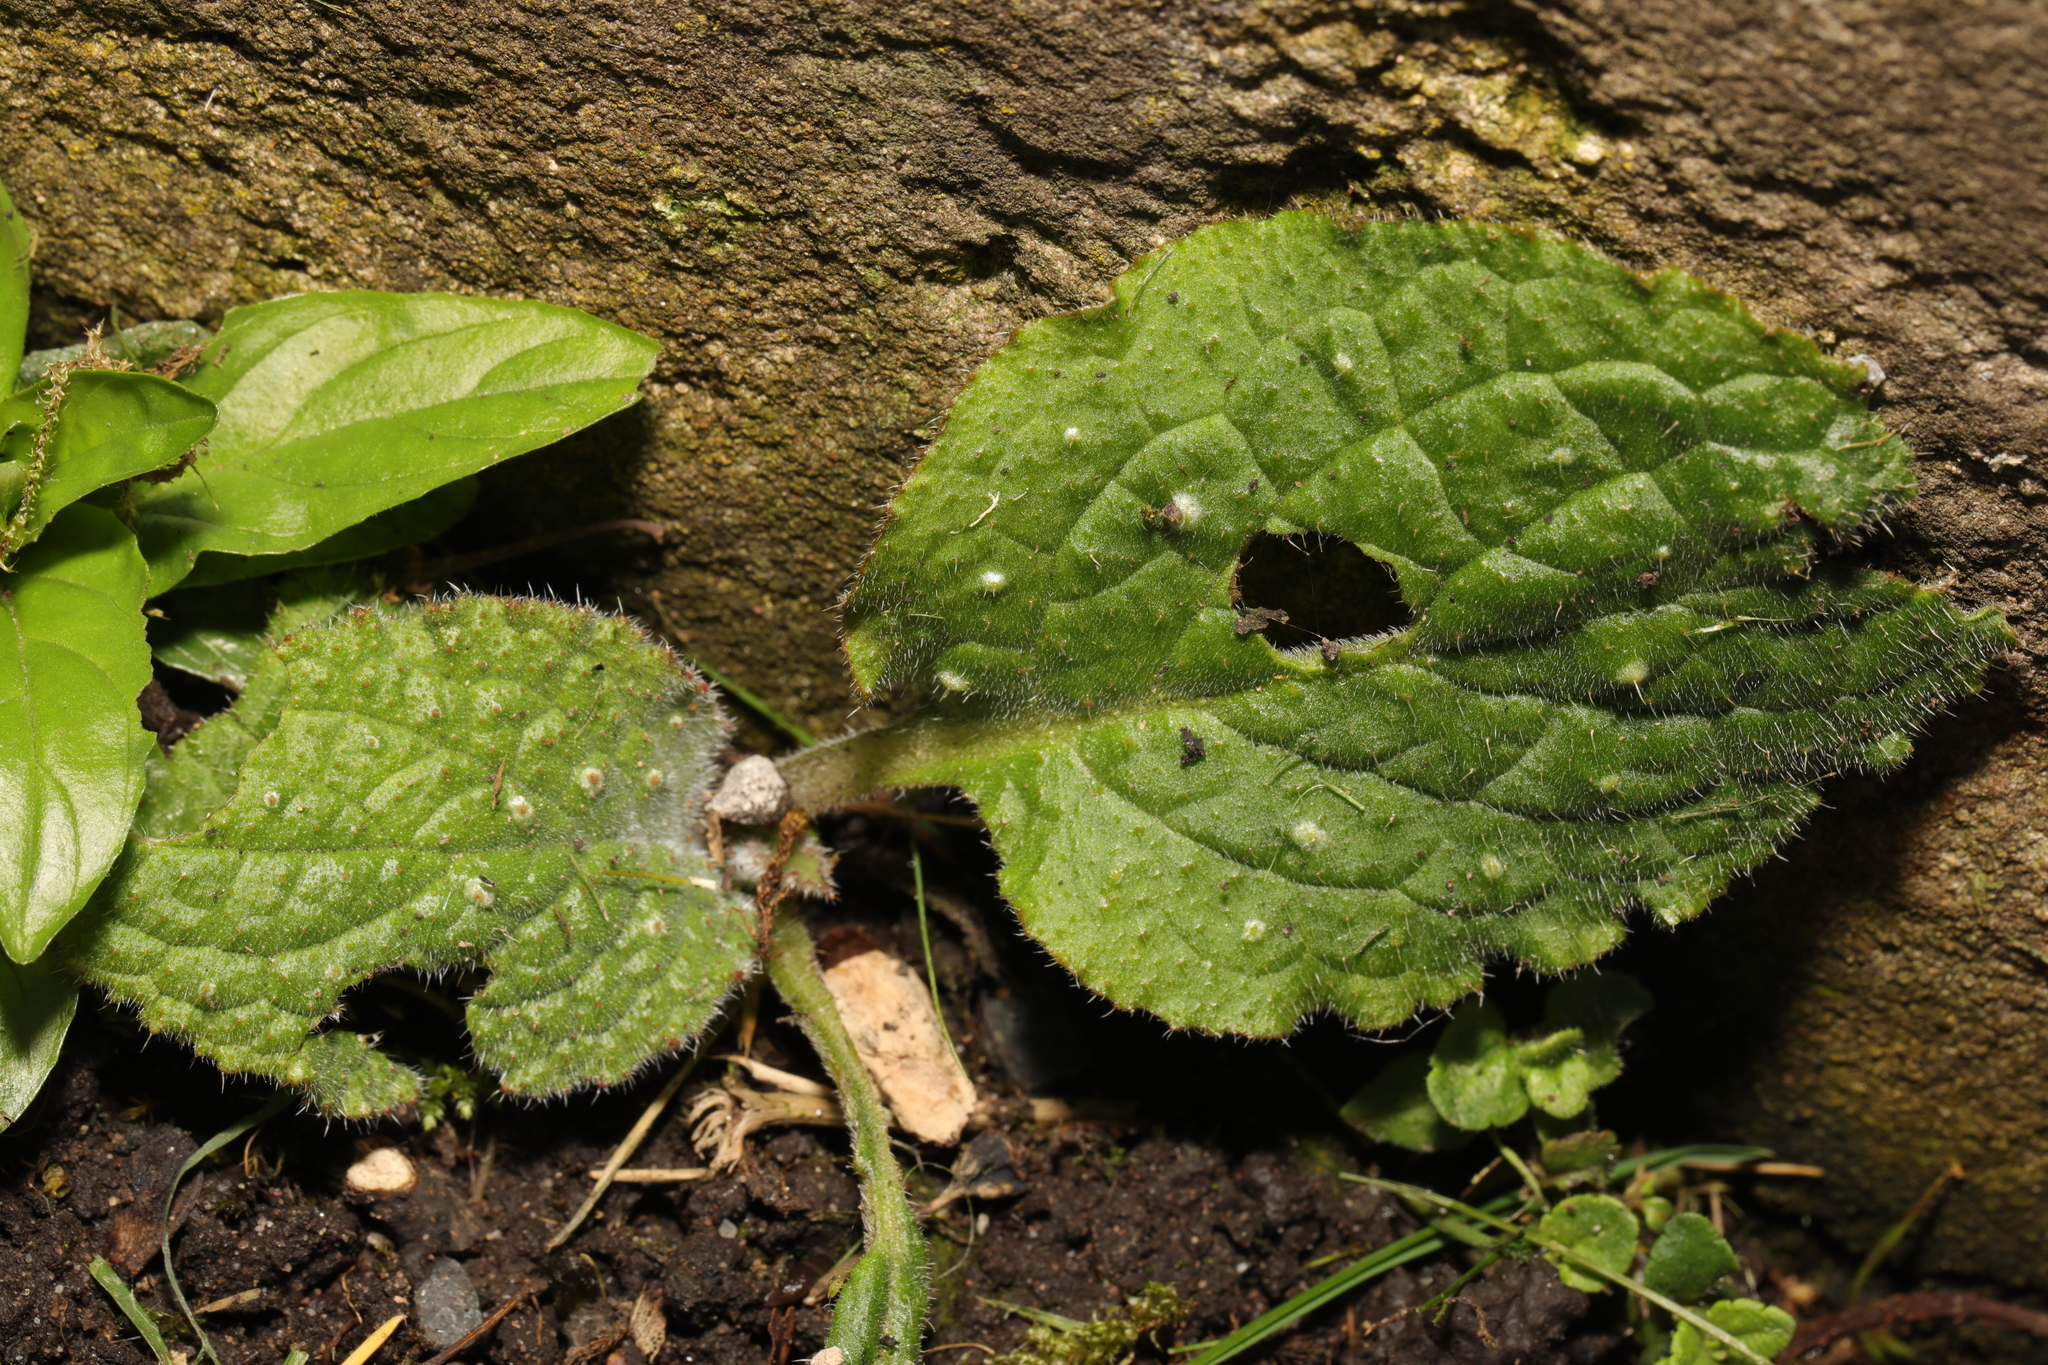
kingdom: Plantae
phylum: Tracheophyta
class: Magnoliopsida
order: Boraginales
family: Boraginaceae
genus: Pentaglottis
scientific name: Pentaglottis sempervirens
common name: Green alkanet
